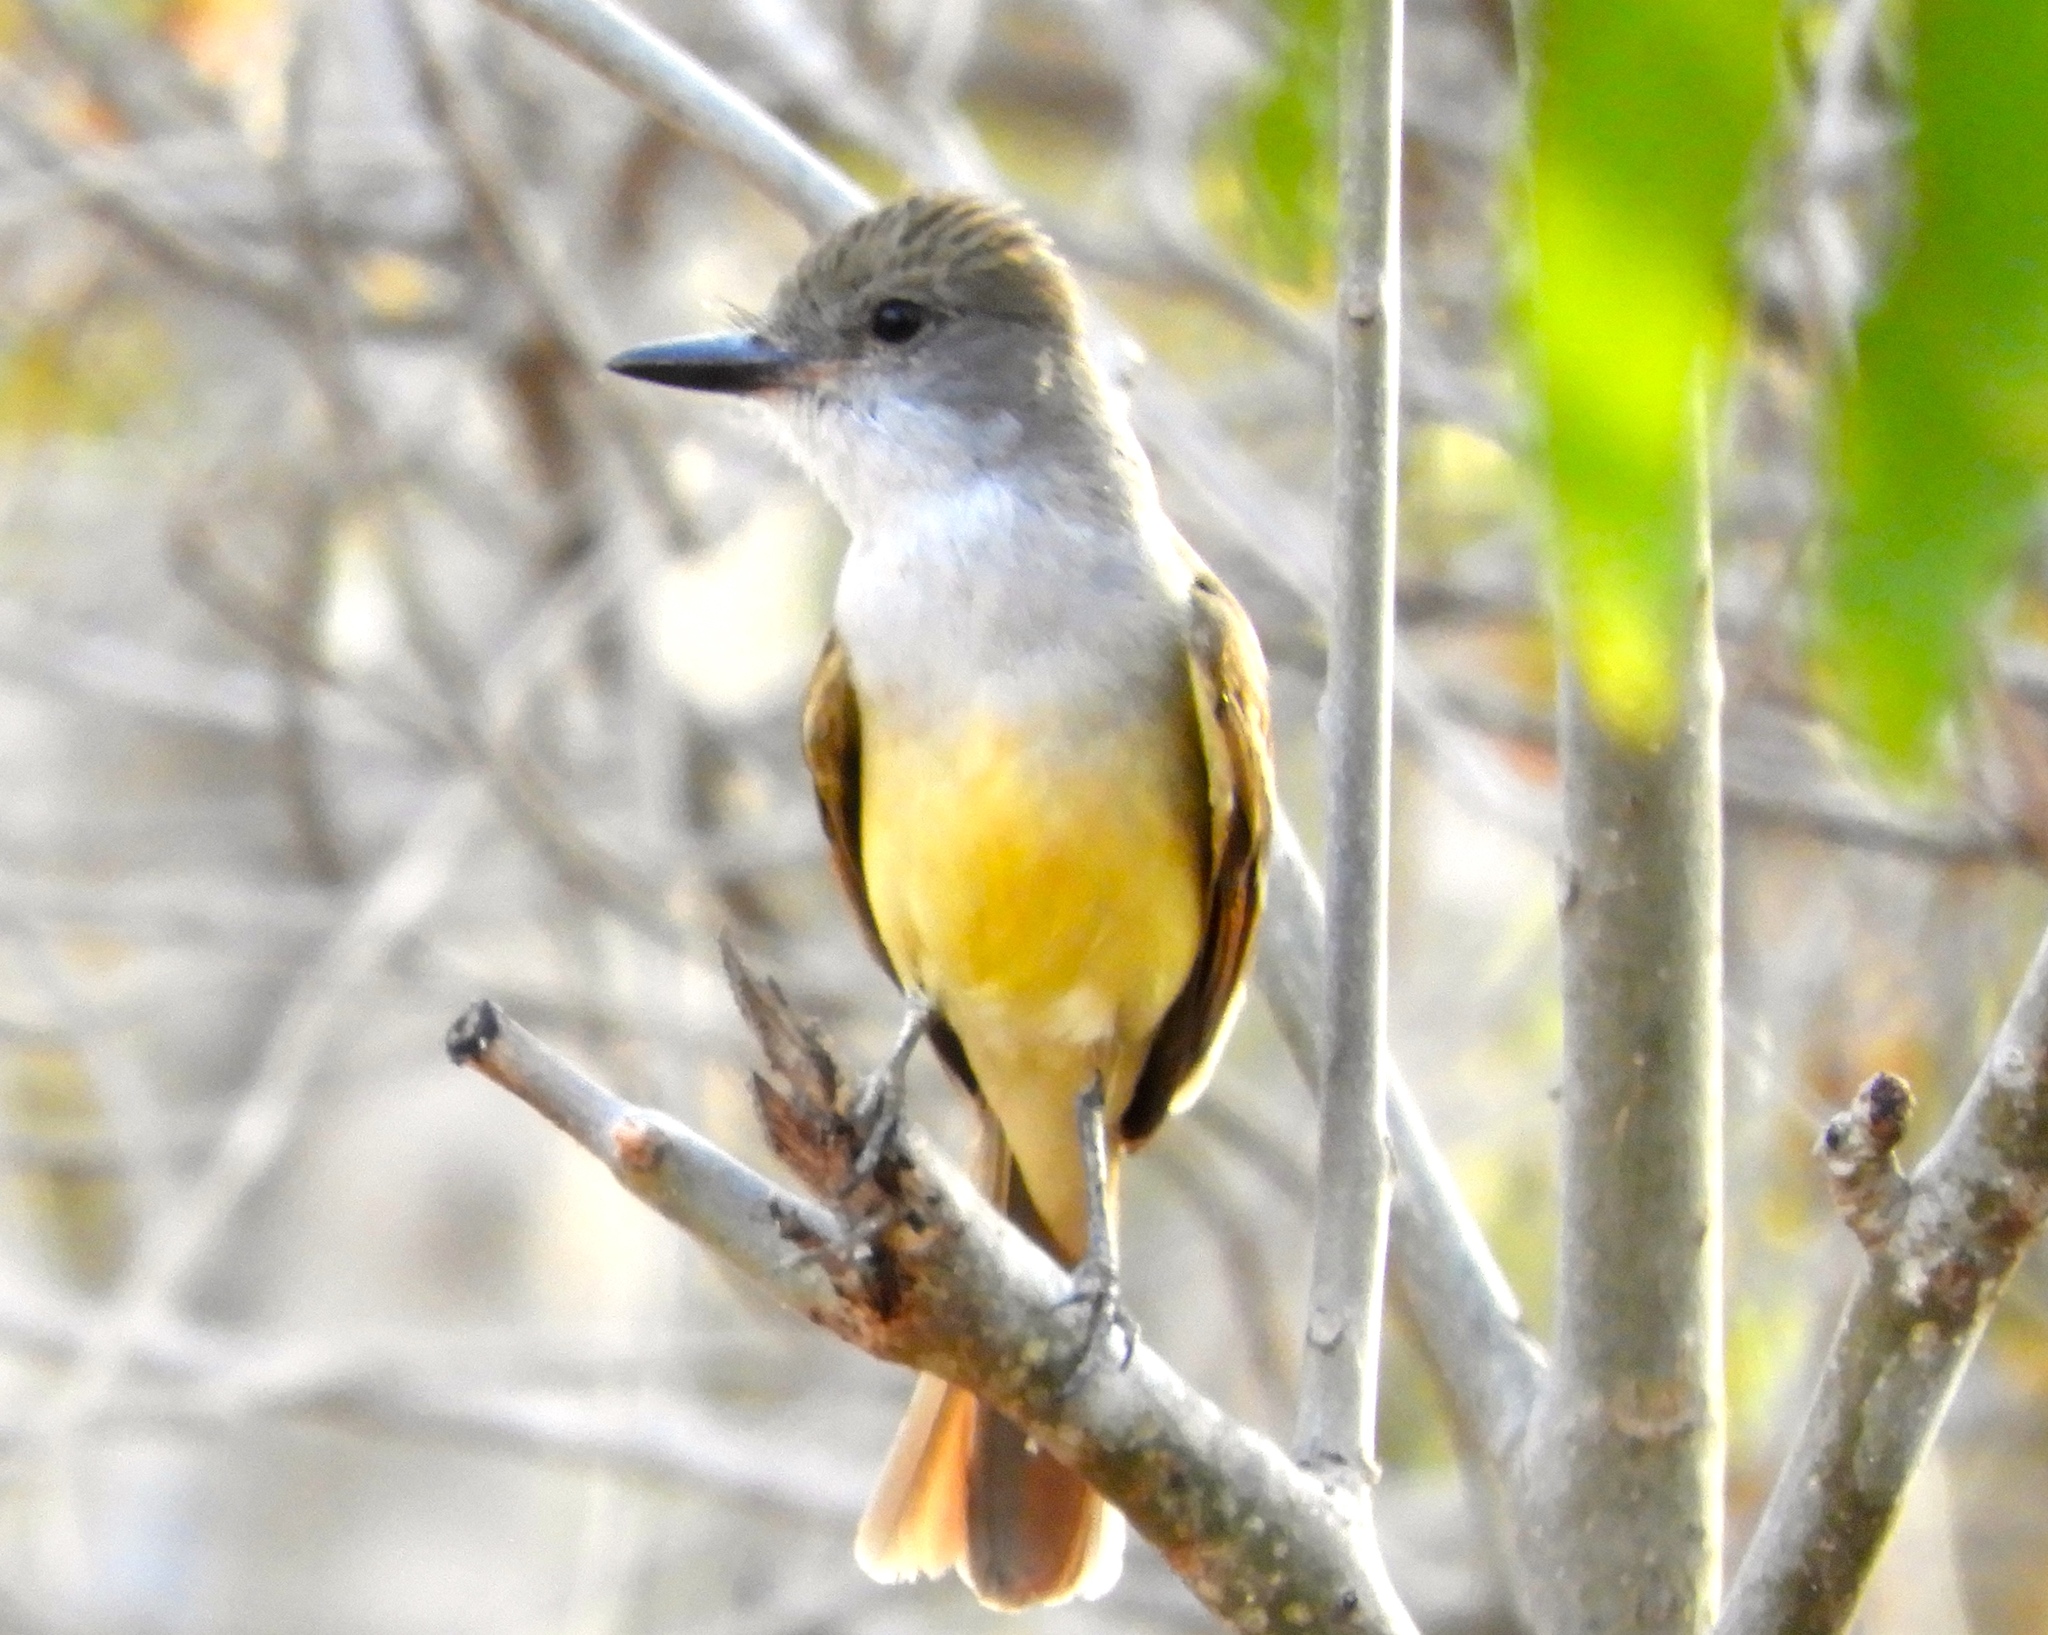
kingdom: Animalia
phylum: Chordata
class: Aves
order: Passeriformes
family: Tyrannidae
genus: Myiarchus
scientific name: Myiarchus tyrannulus
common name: Brown-crested flycatcher
